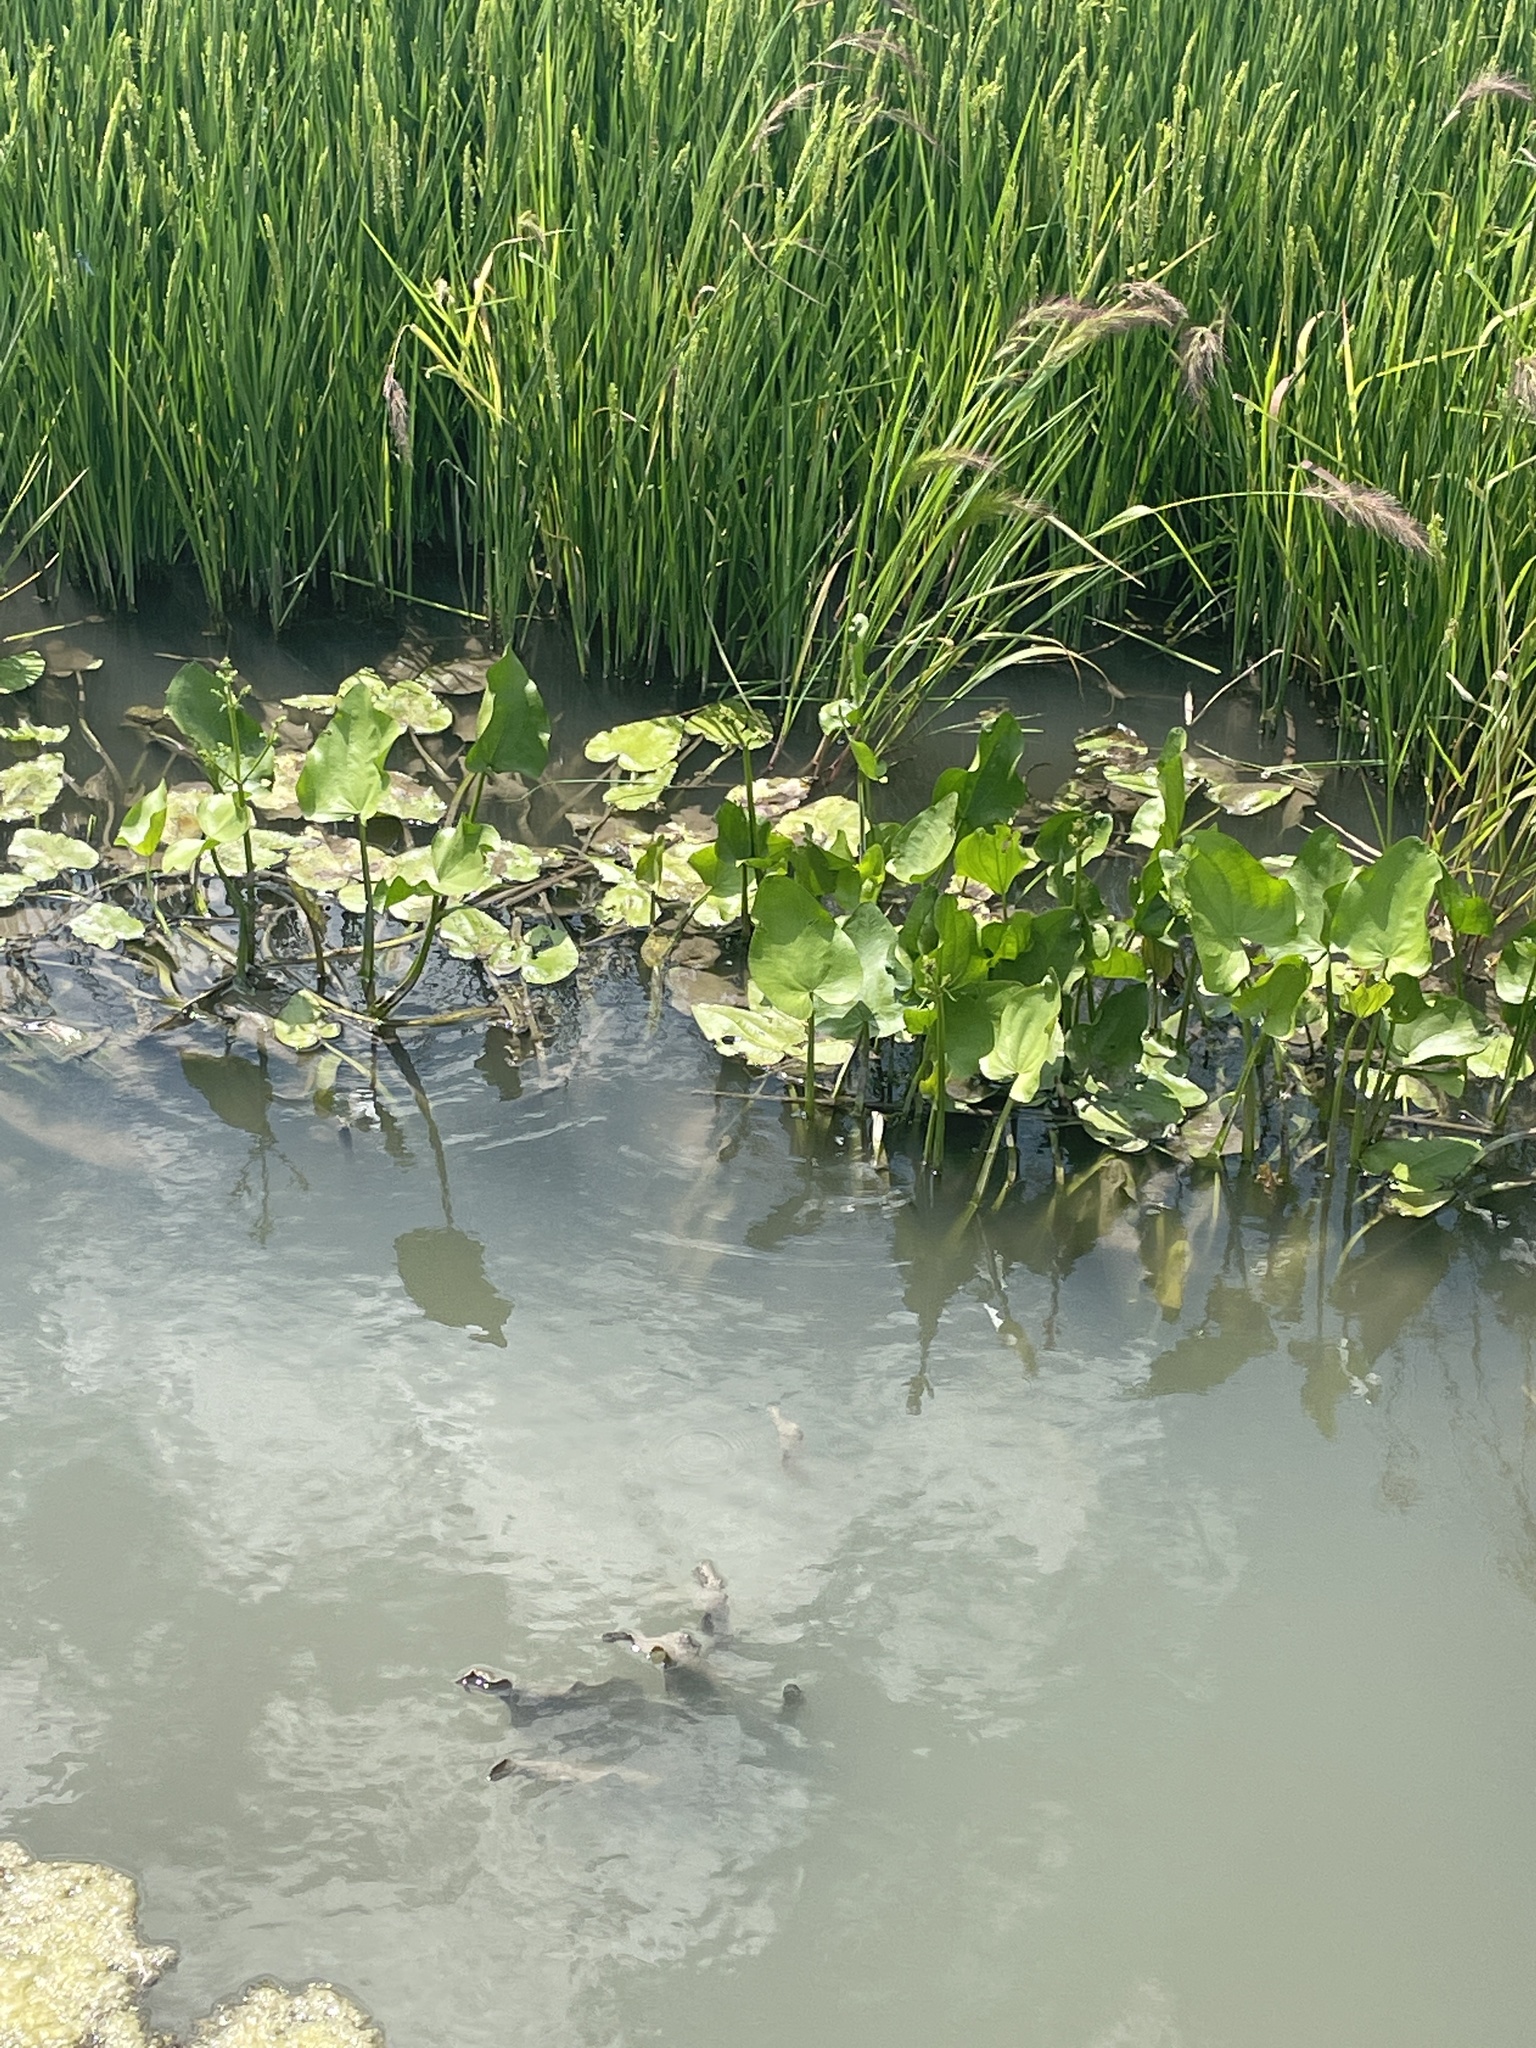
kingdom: Plantae
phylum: Tracheophyta
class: Liliopsida
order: Alismatales
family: Alismataceae
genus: Echinodorus
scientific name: Echinodorus berteroi
